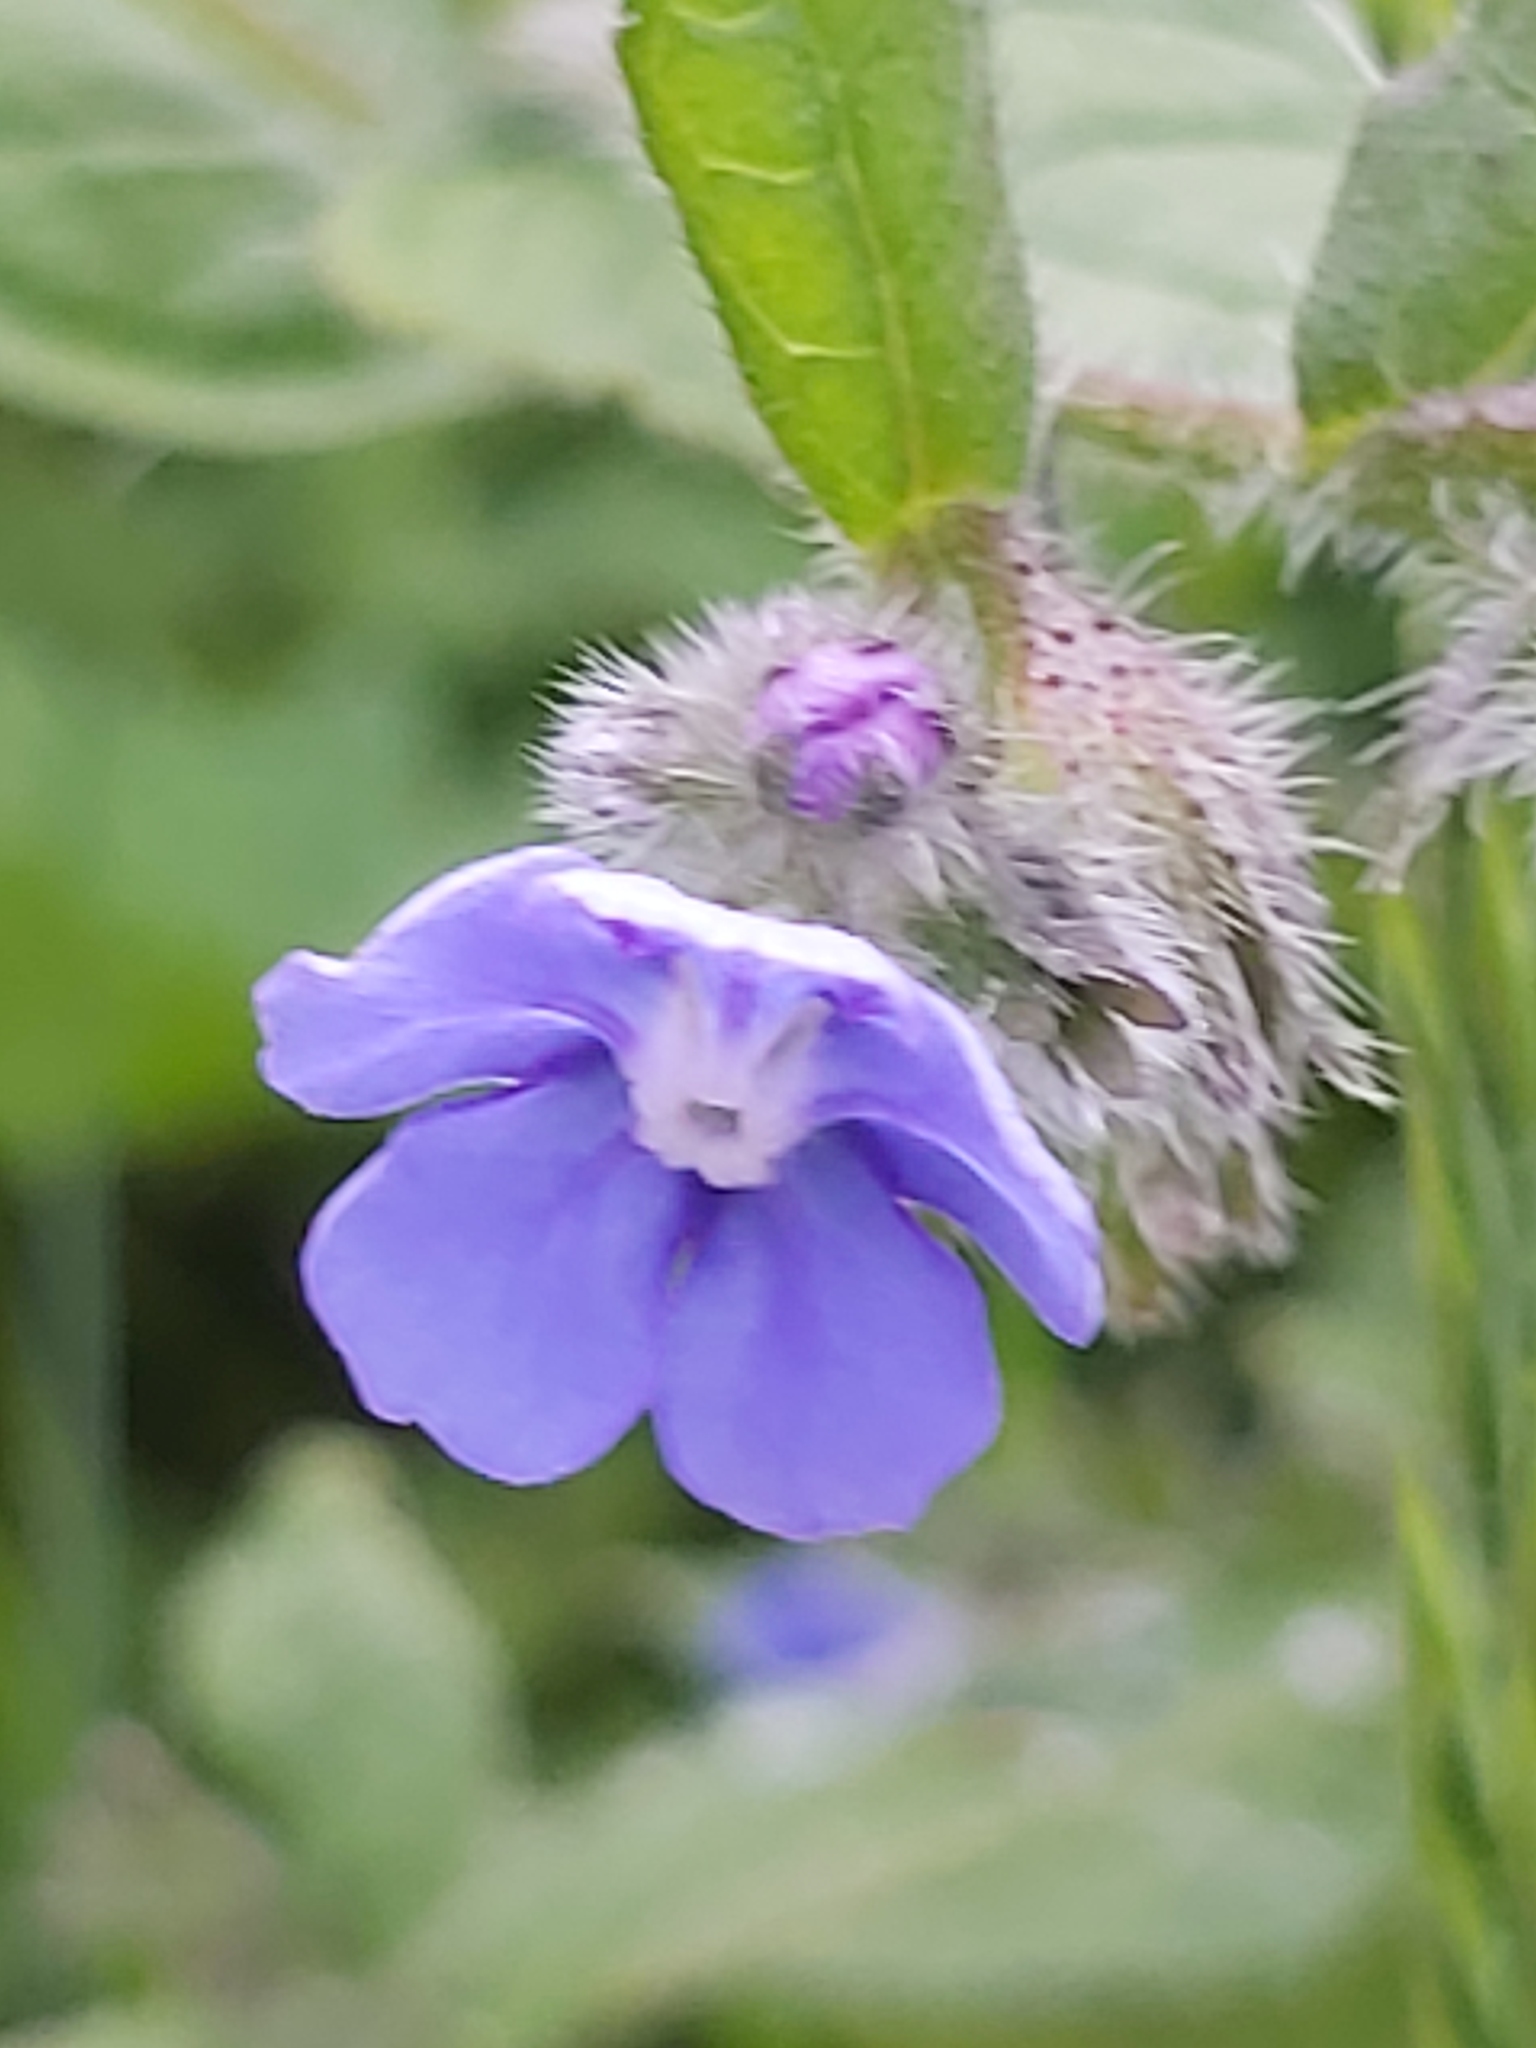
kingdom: Plantae
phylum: Tracheophyta
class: Magnoliopsida
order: Boraginales
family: Boraginaceae
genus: Pentaglottis
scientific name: Pentaglottis sempervirens
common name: Green alkanet
